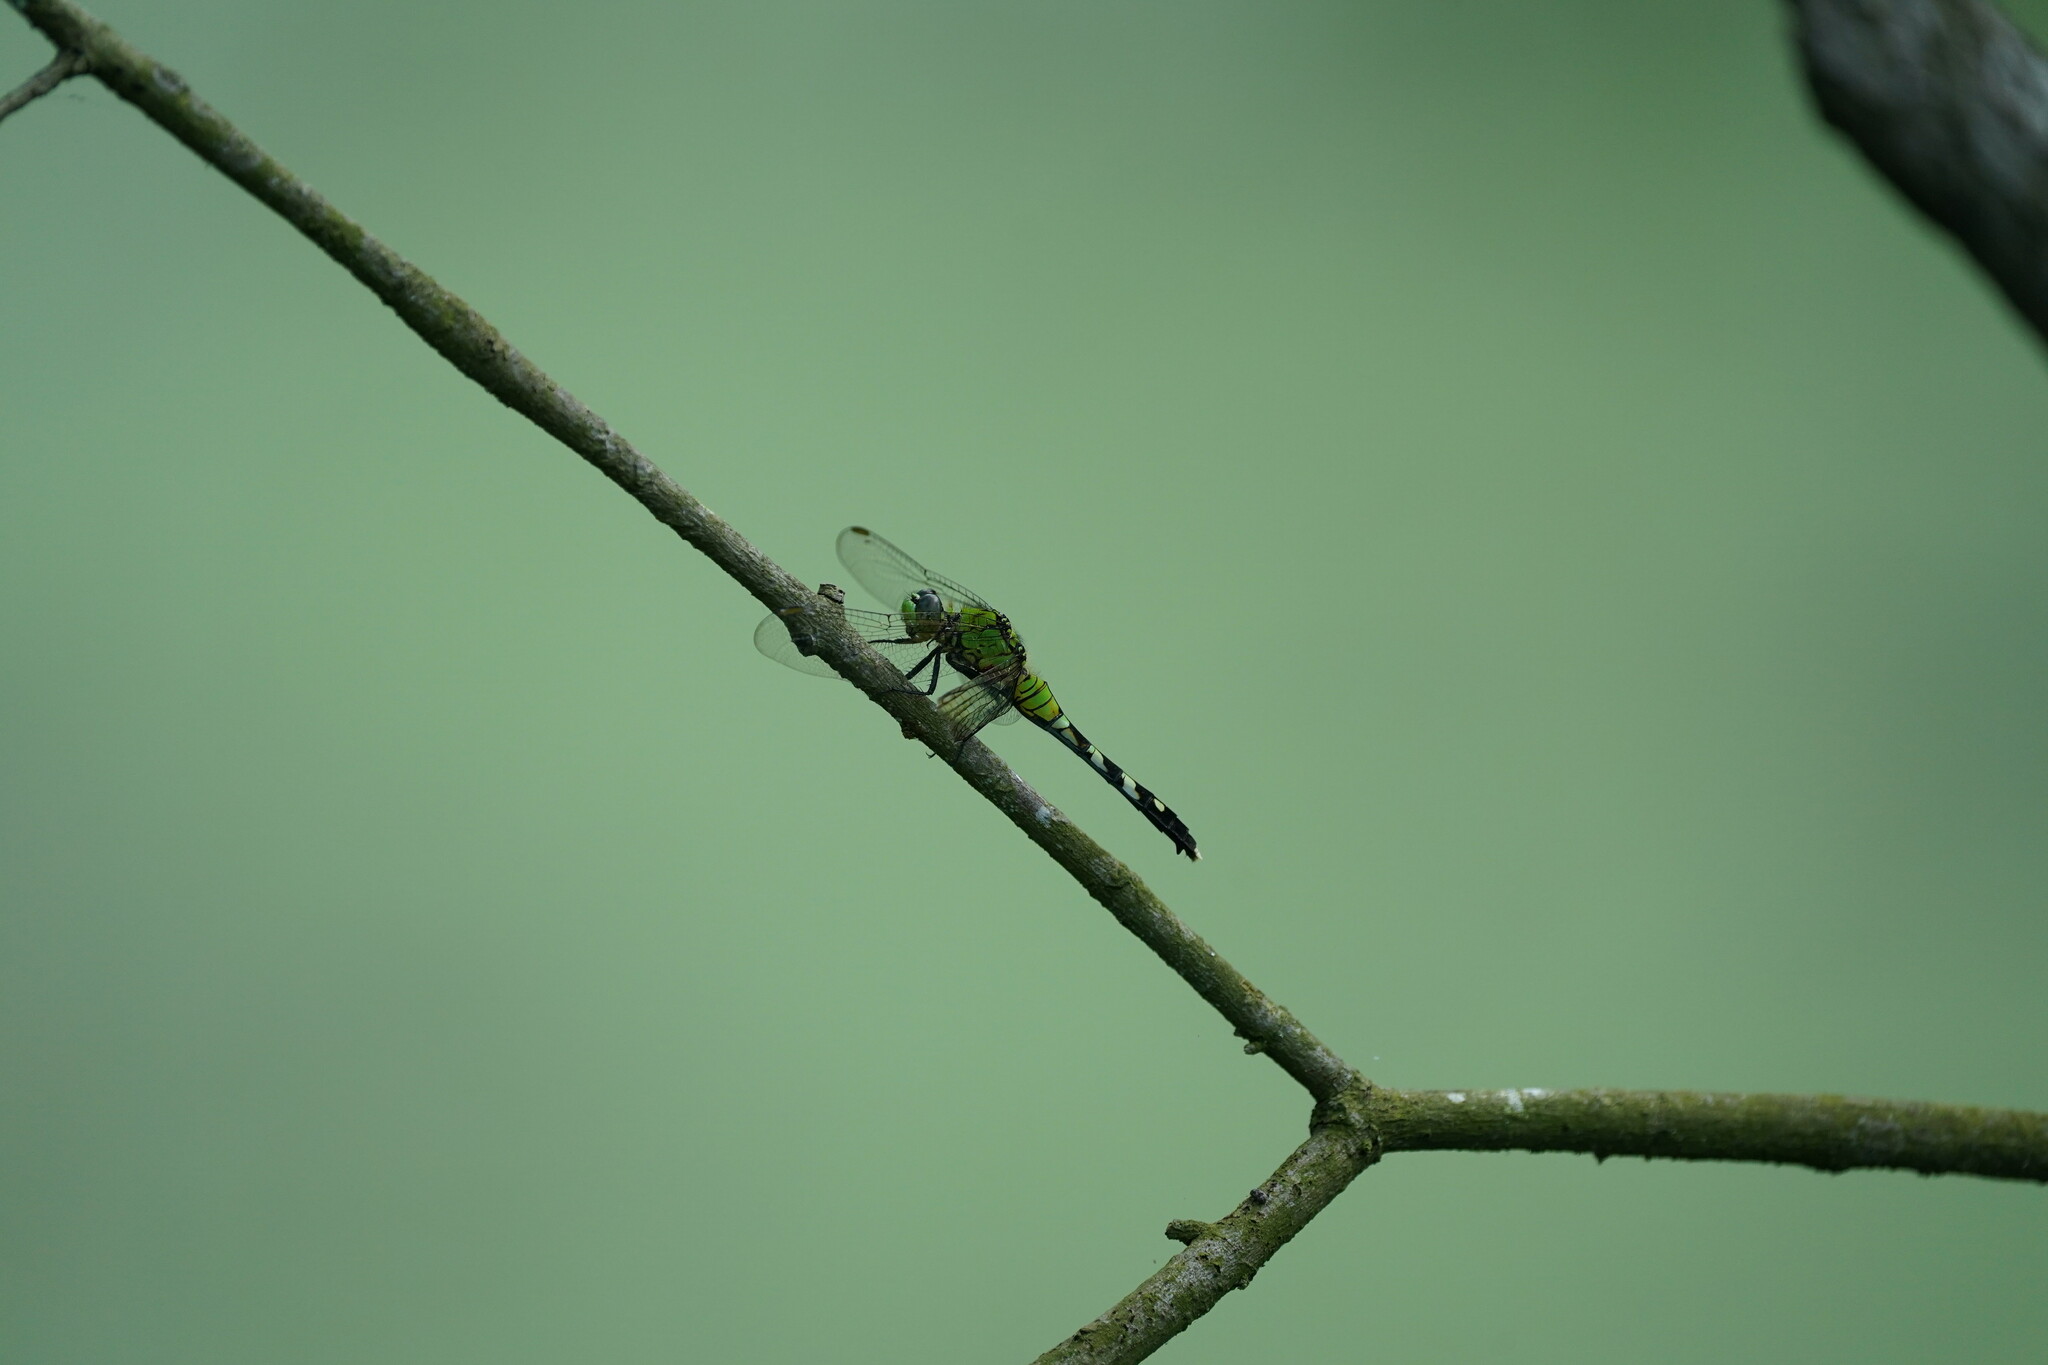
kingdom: Animalia
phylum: Arthropoda
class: Insecta
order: Odonata
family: Libellulidae
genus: Erythemis
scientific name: Erythemis simplicicollis
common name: Eastern pondhawk
